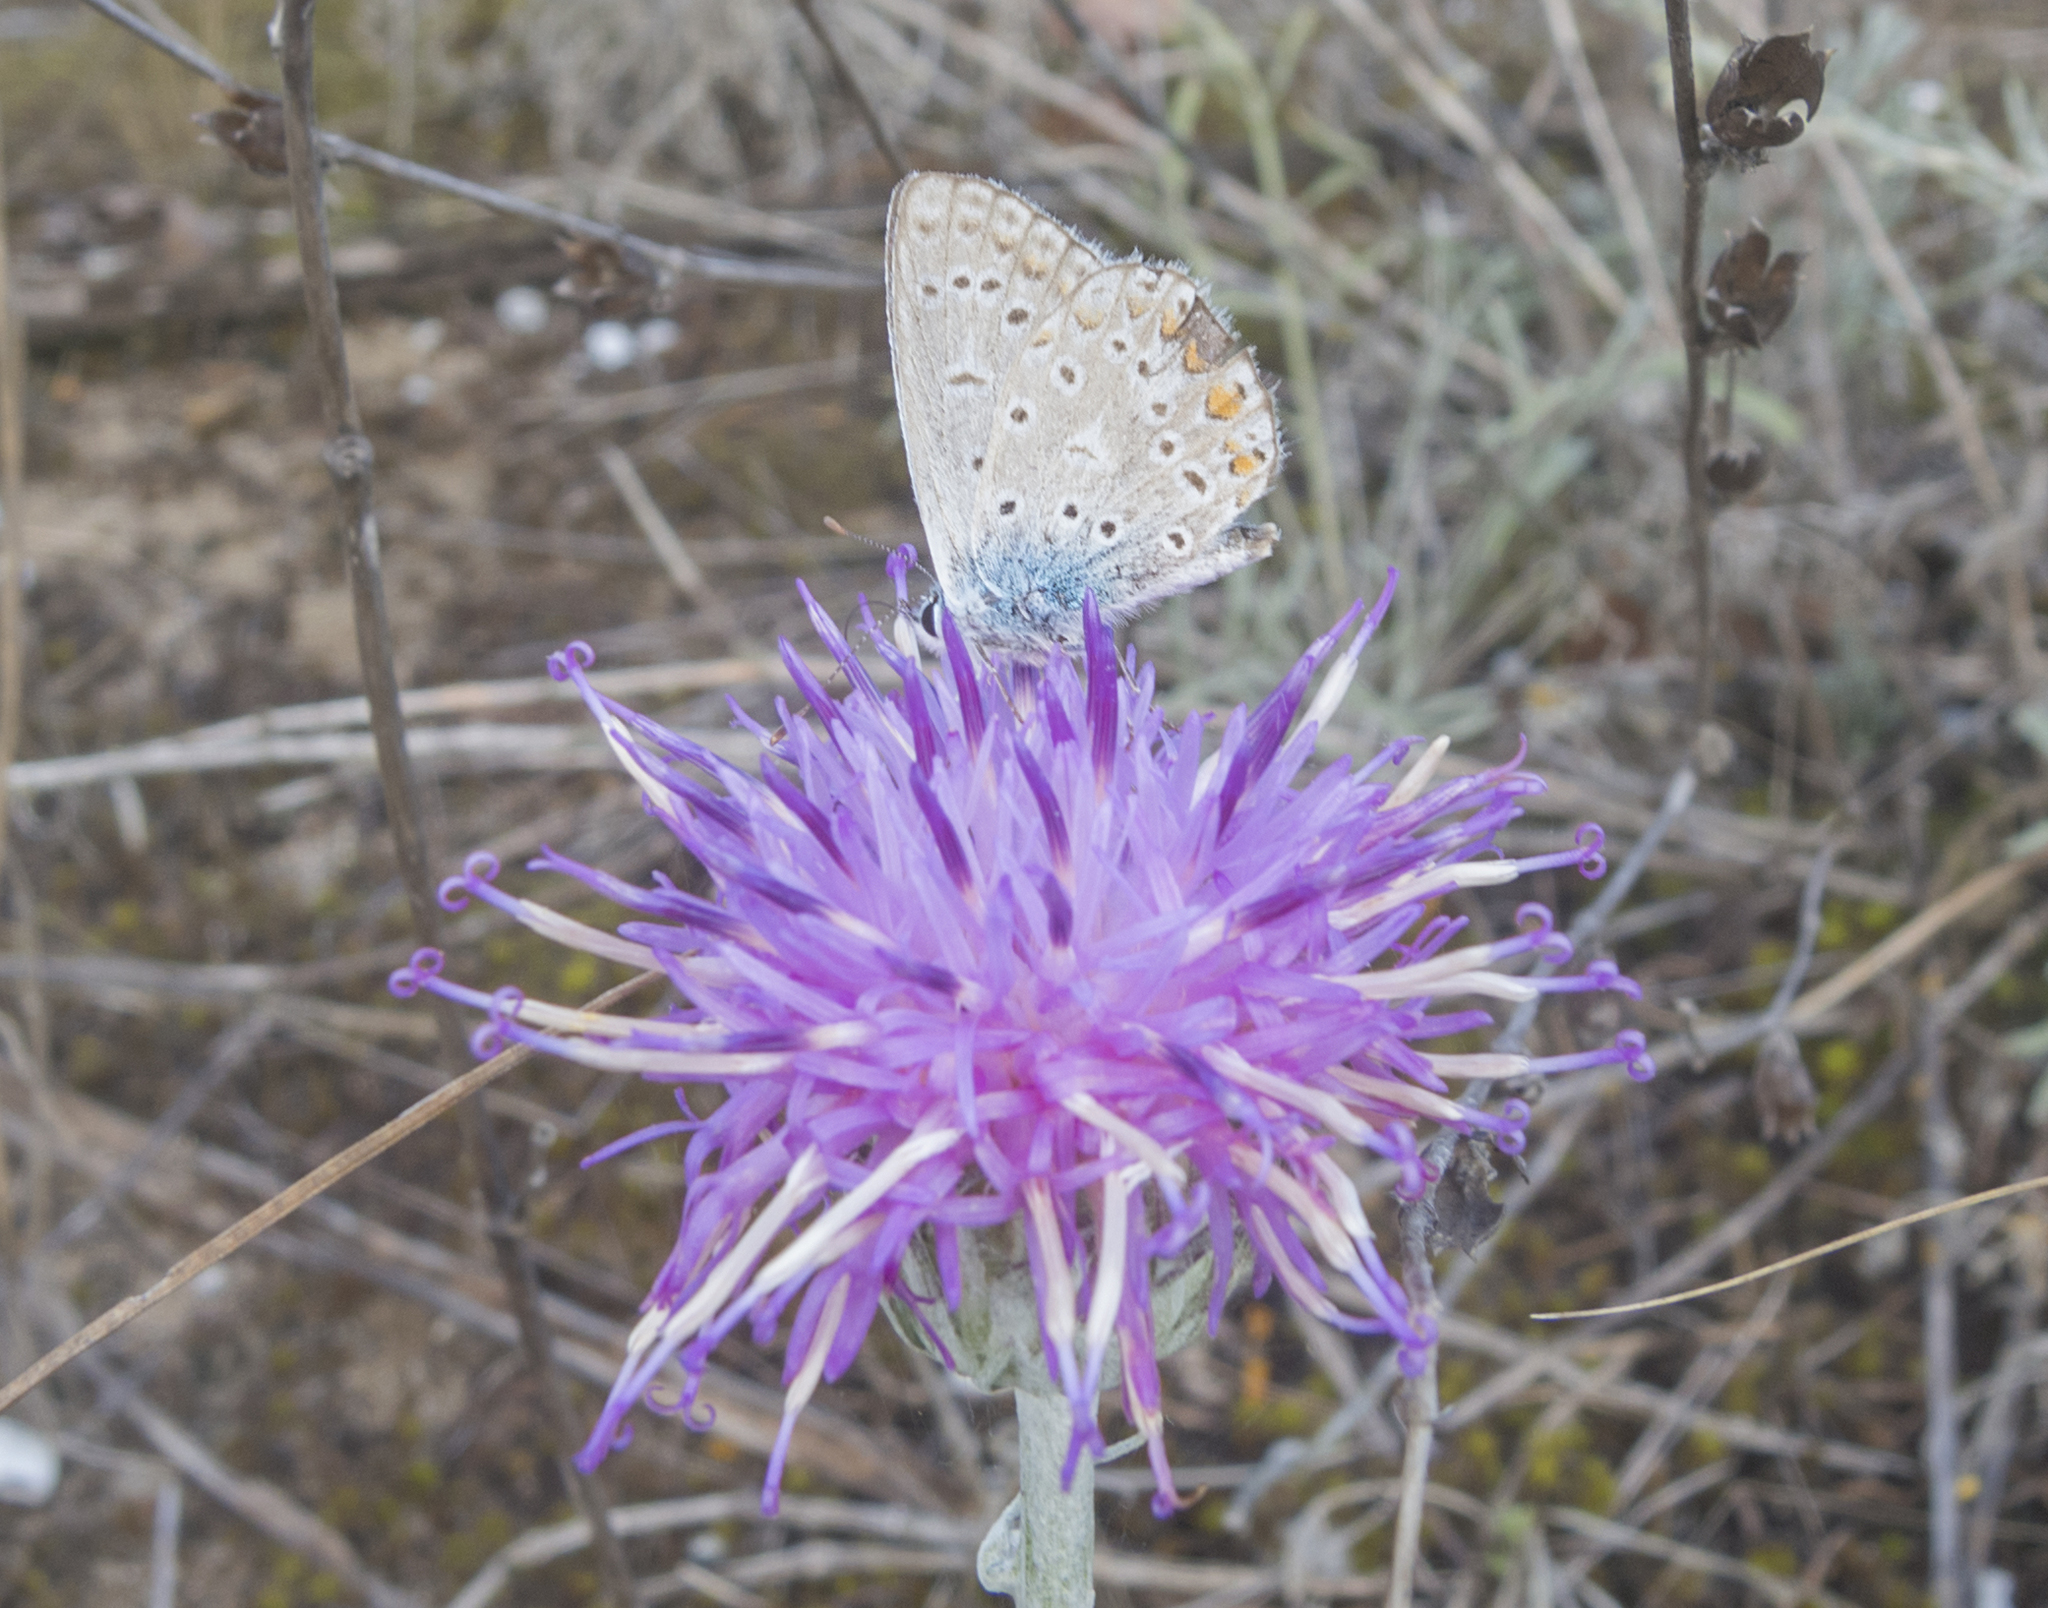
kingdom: Animalia
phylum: Arthropoda
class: Insecta
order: Lepidoptera
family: Lycaenidae
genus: Polyommatus
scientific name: Polyommatus icarus
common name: Common blue
